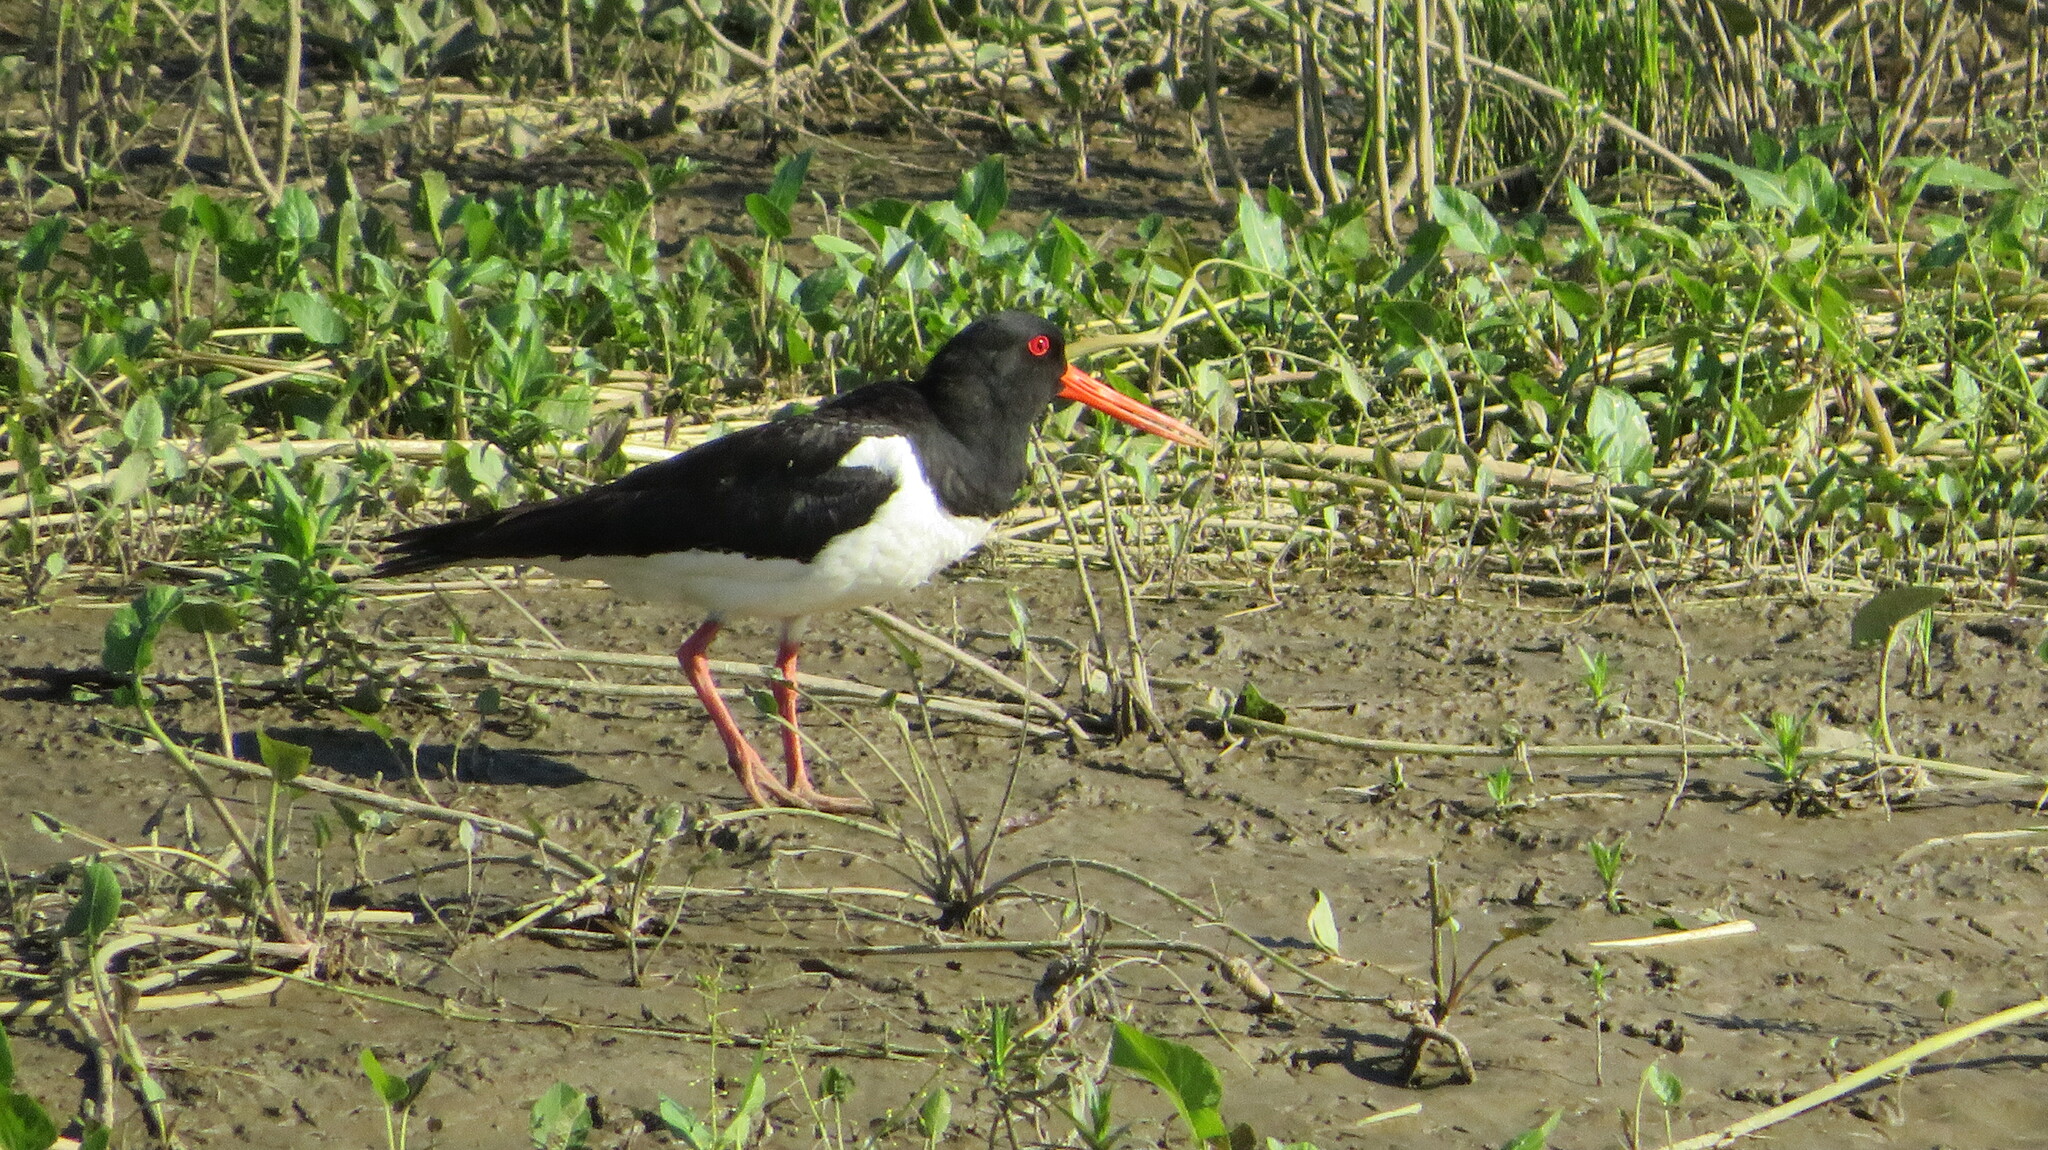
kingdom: Animalia
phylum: Chordata
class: Aves
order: Charadriiformes
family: Haematopodidae
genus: Haematopus
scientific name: Haematopus ostralegus
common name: Eurasian oystercatcher
